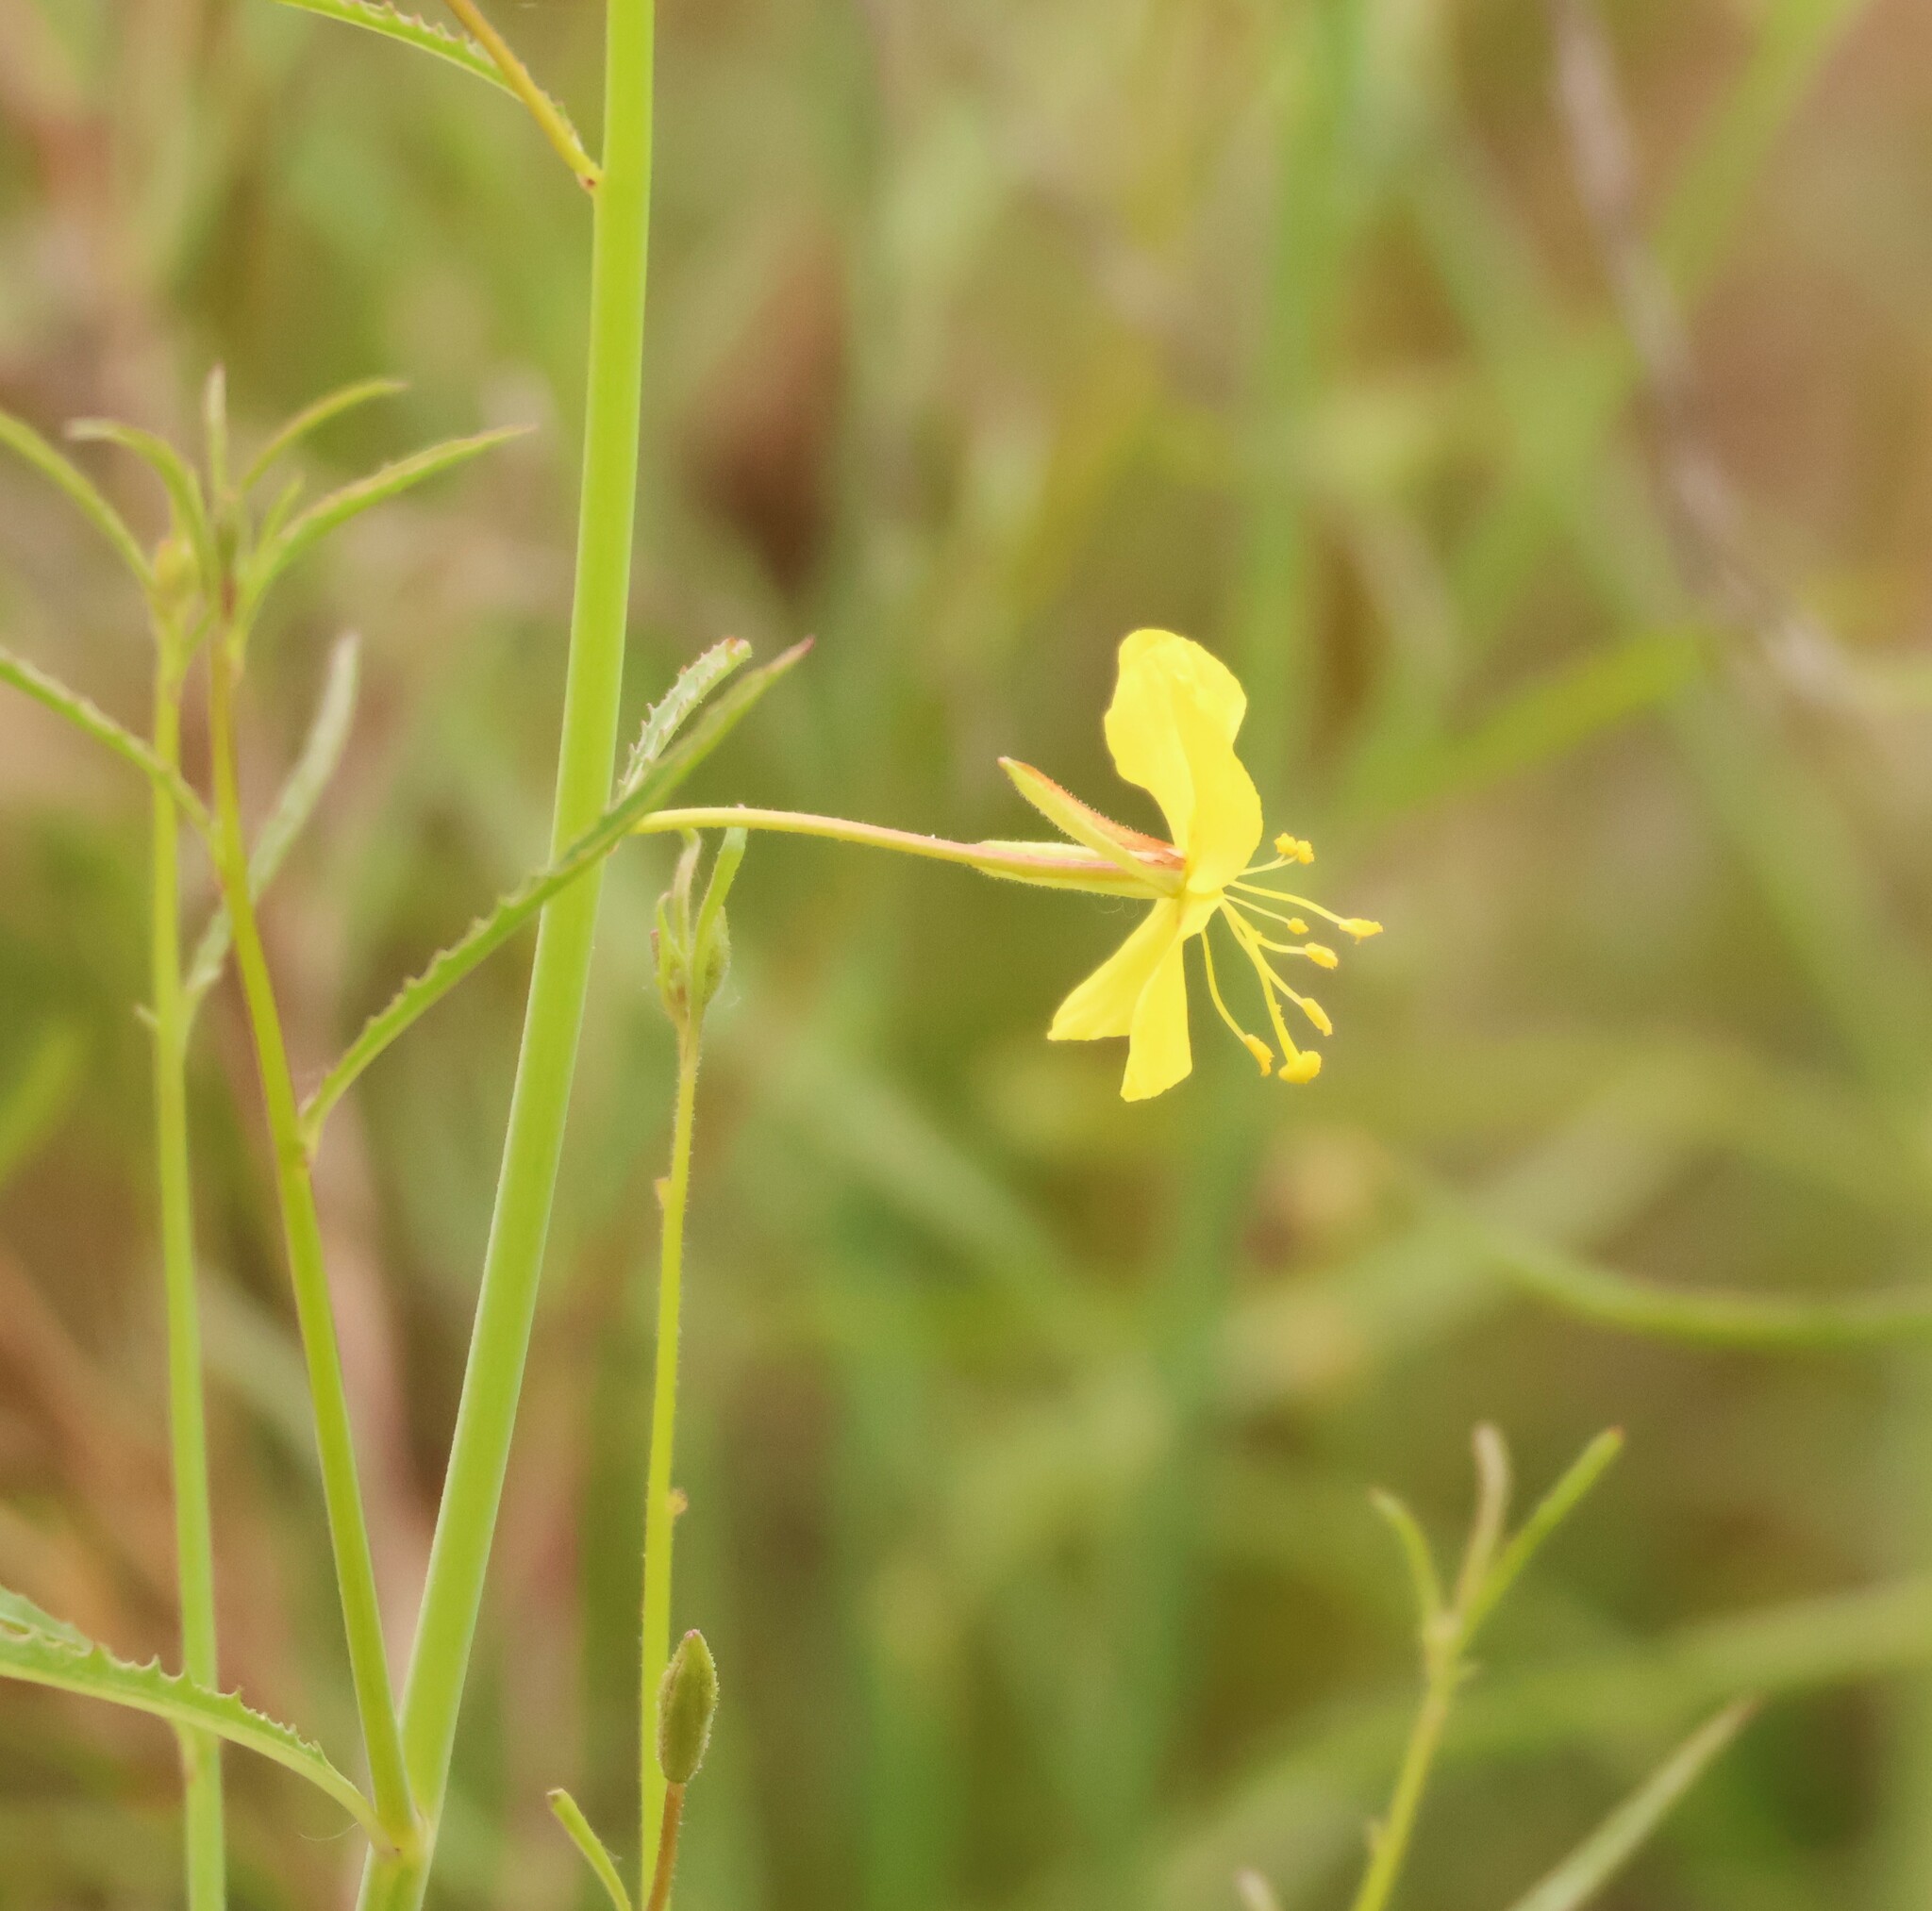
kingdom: Plantae
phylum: Tracheophyta
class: Magnoliopsida
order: Myrtales
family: Onagraceae
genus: Eulobus
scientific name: Eulobus californicus
